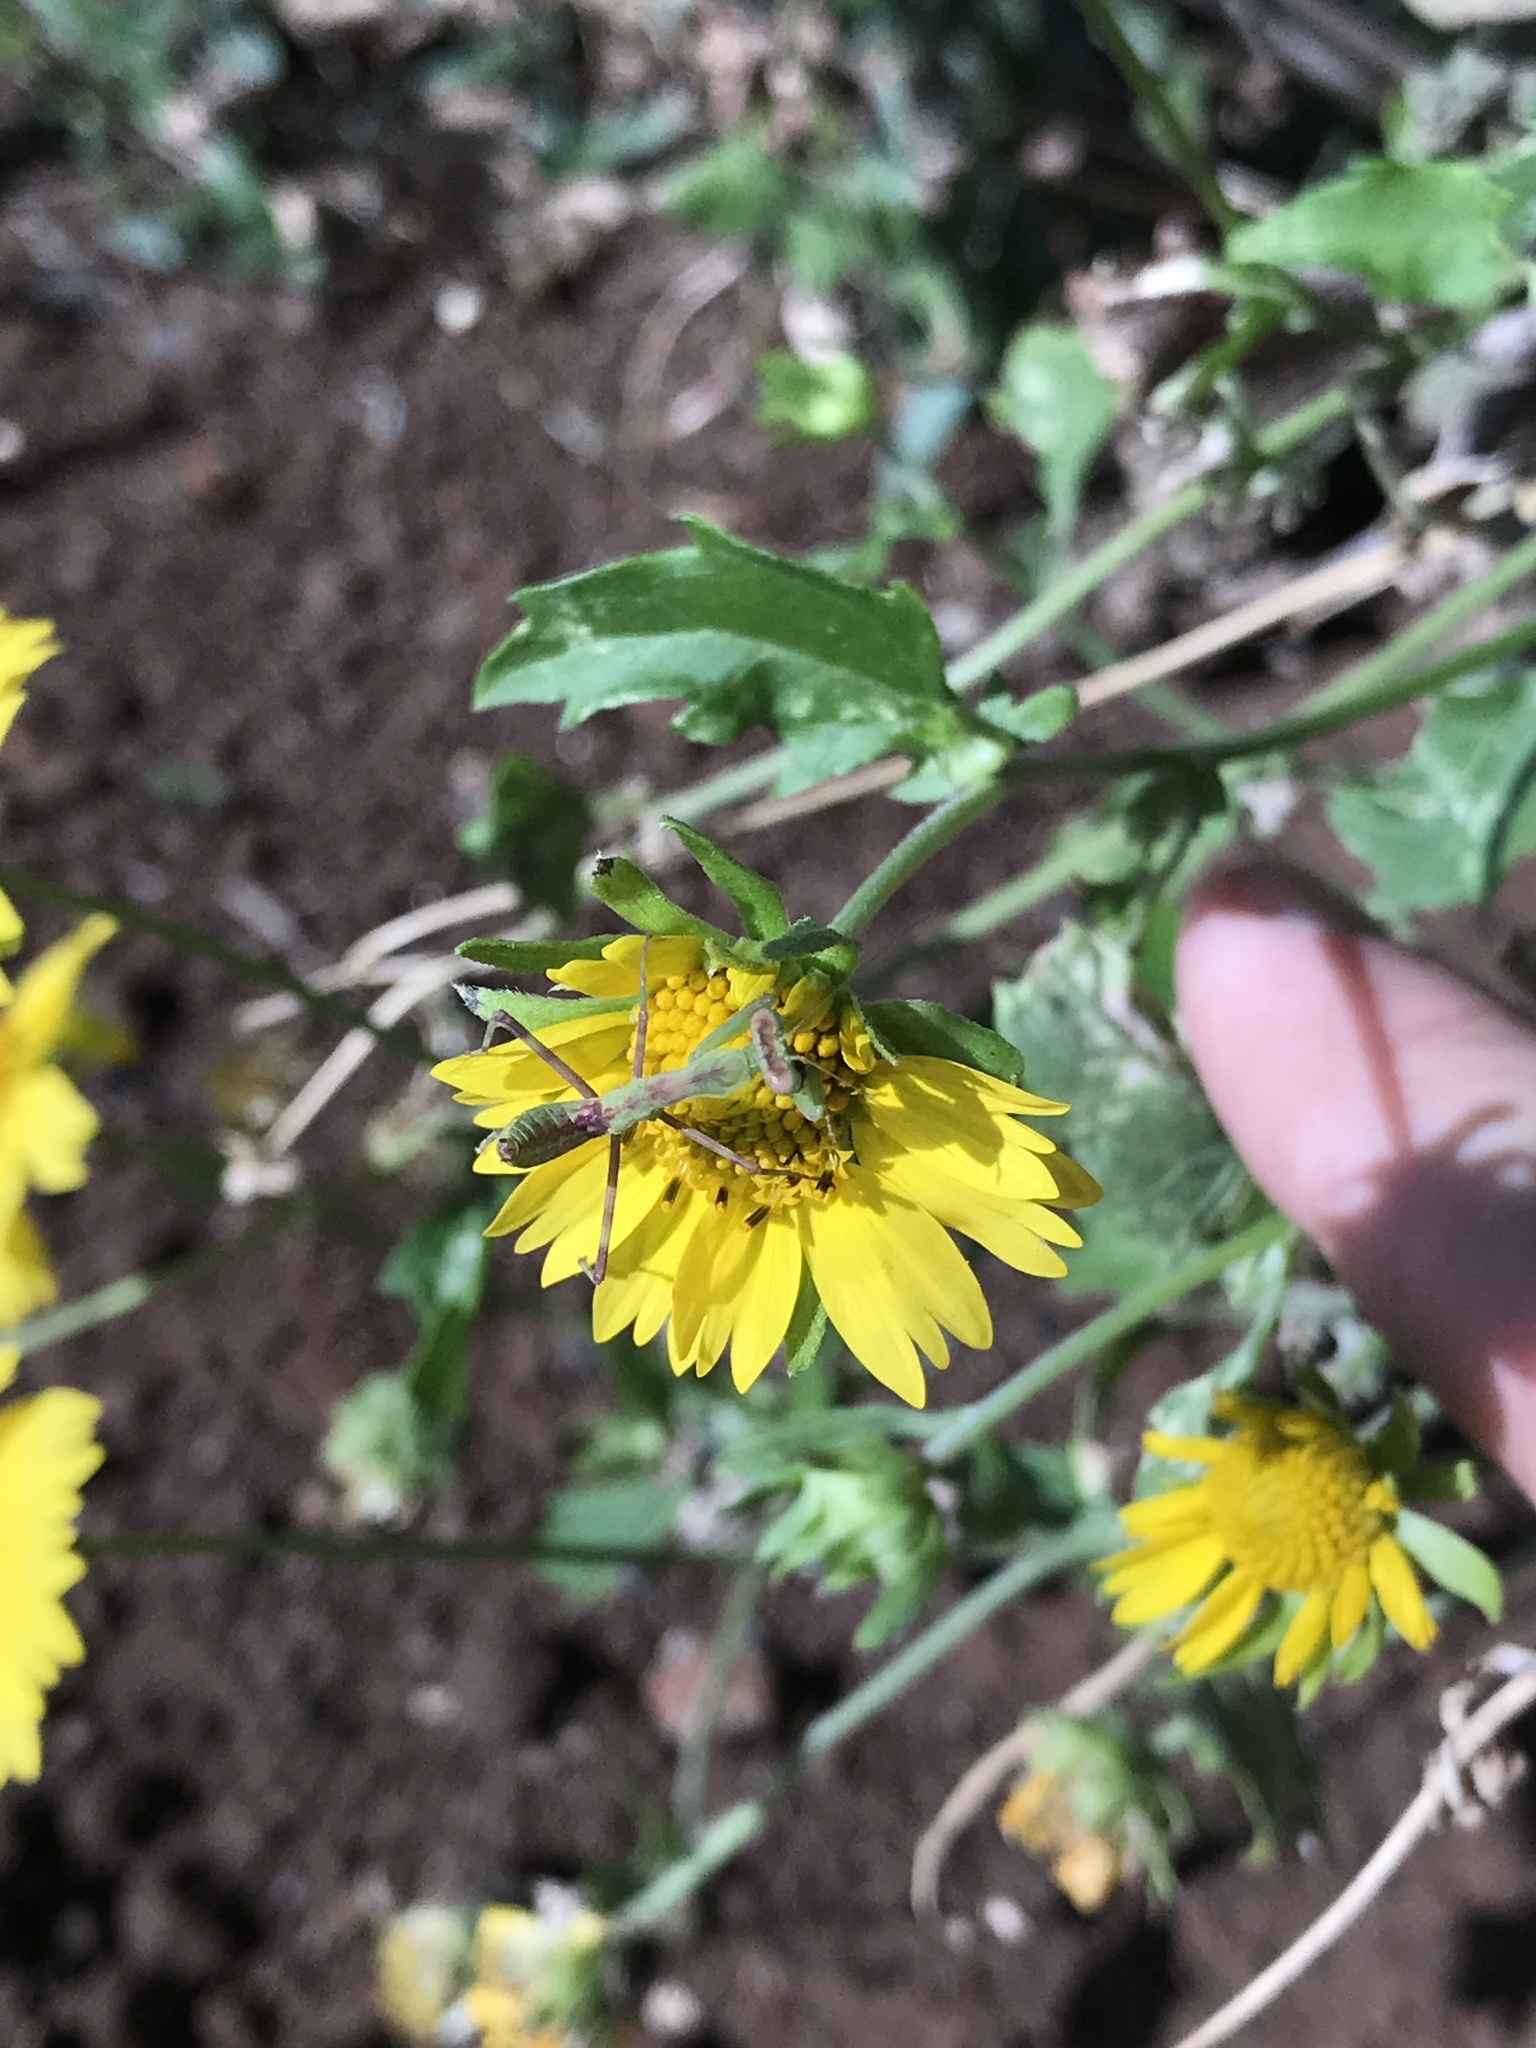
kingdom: Plantae
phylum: Tracheophyta
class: Magnoliopsida
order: Asterales
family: Asteraceae
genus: Verbesina
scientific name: Verbesina encelioides
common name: Golden crownbeard
